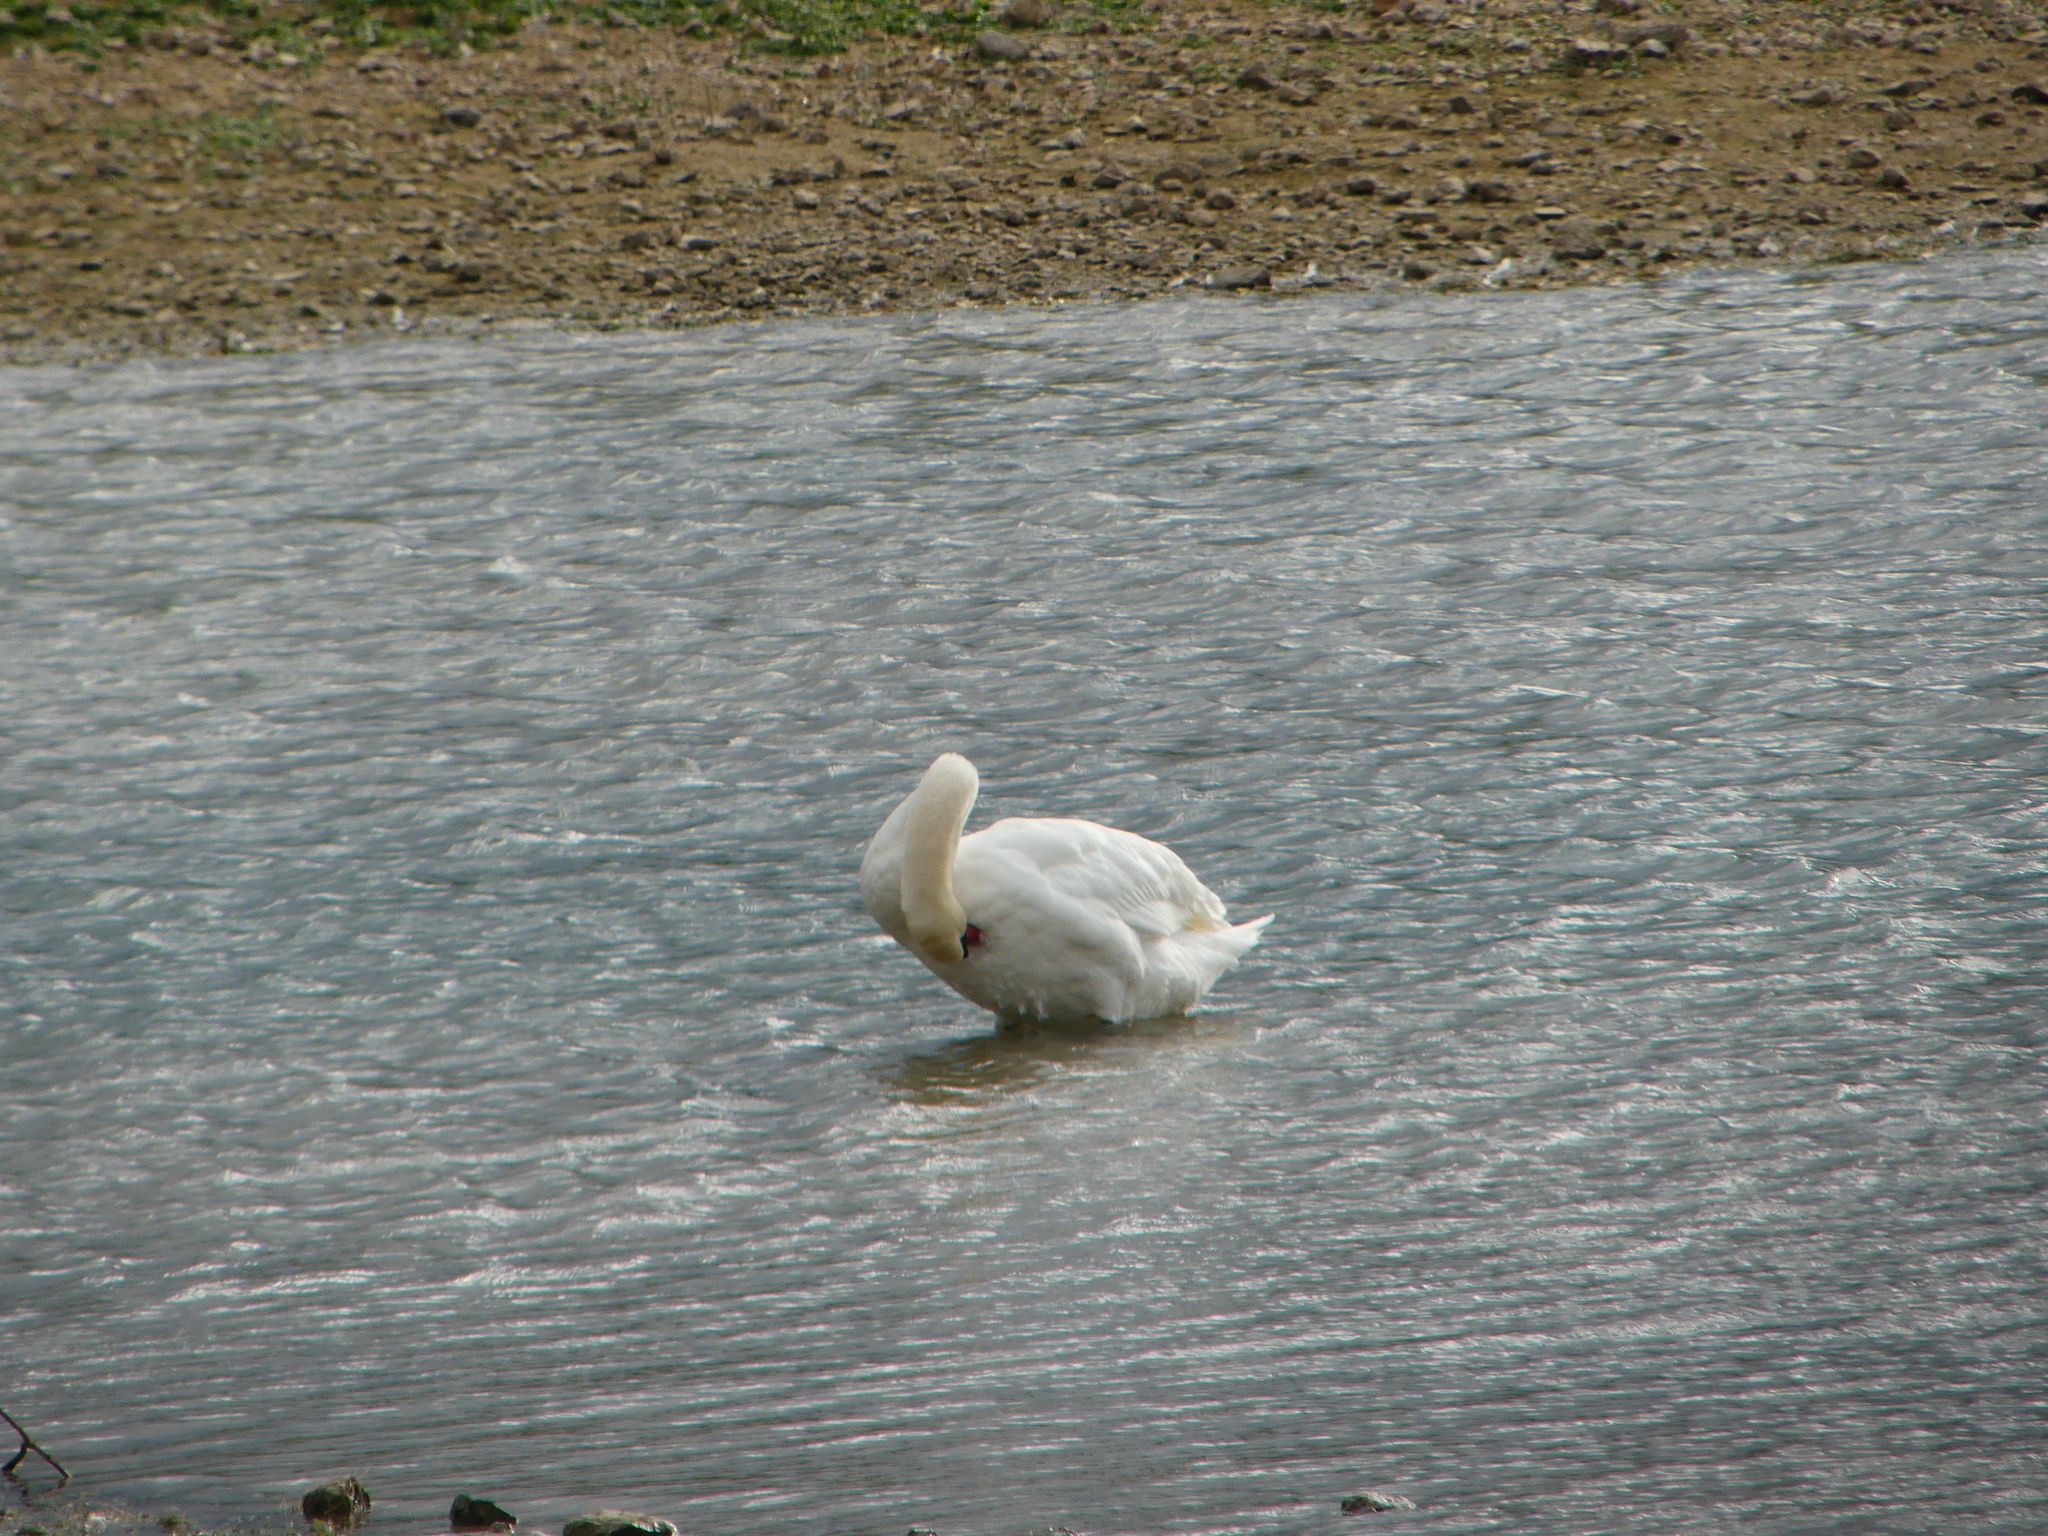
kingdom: Animalia
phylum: Chordata
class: Aves
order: Anseriformes
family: Anatidae
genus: Cygnus
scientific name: Cygnus olor
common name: Mute swan
